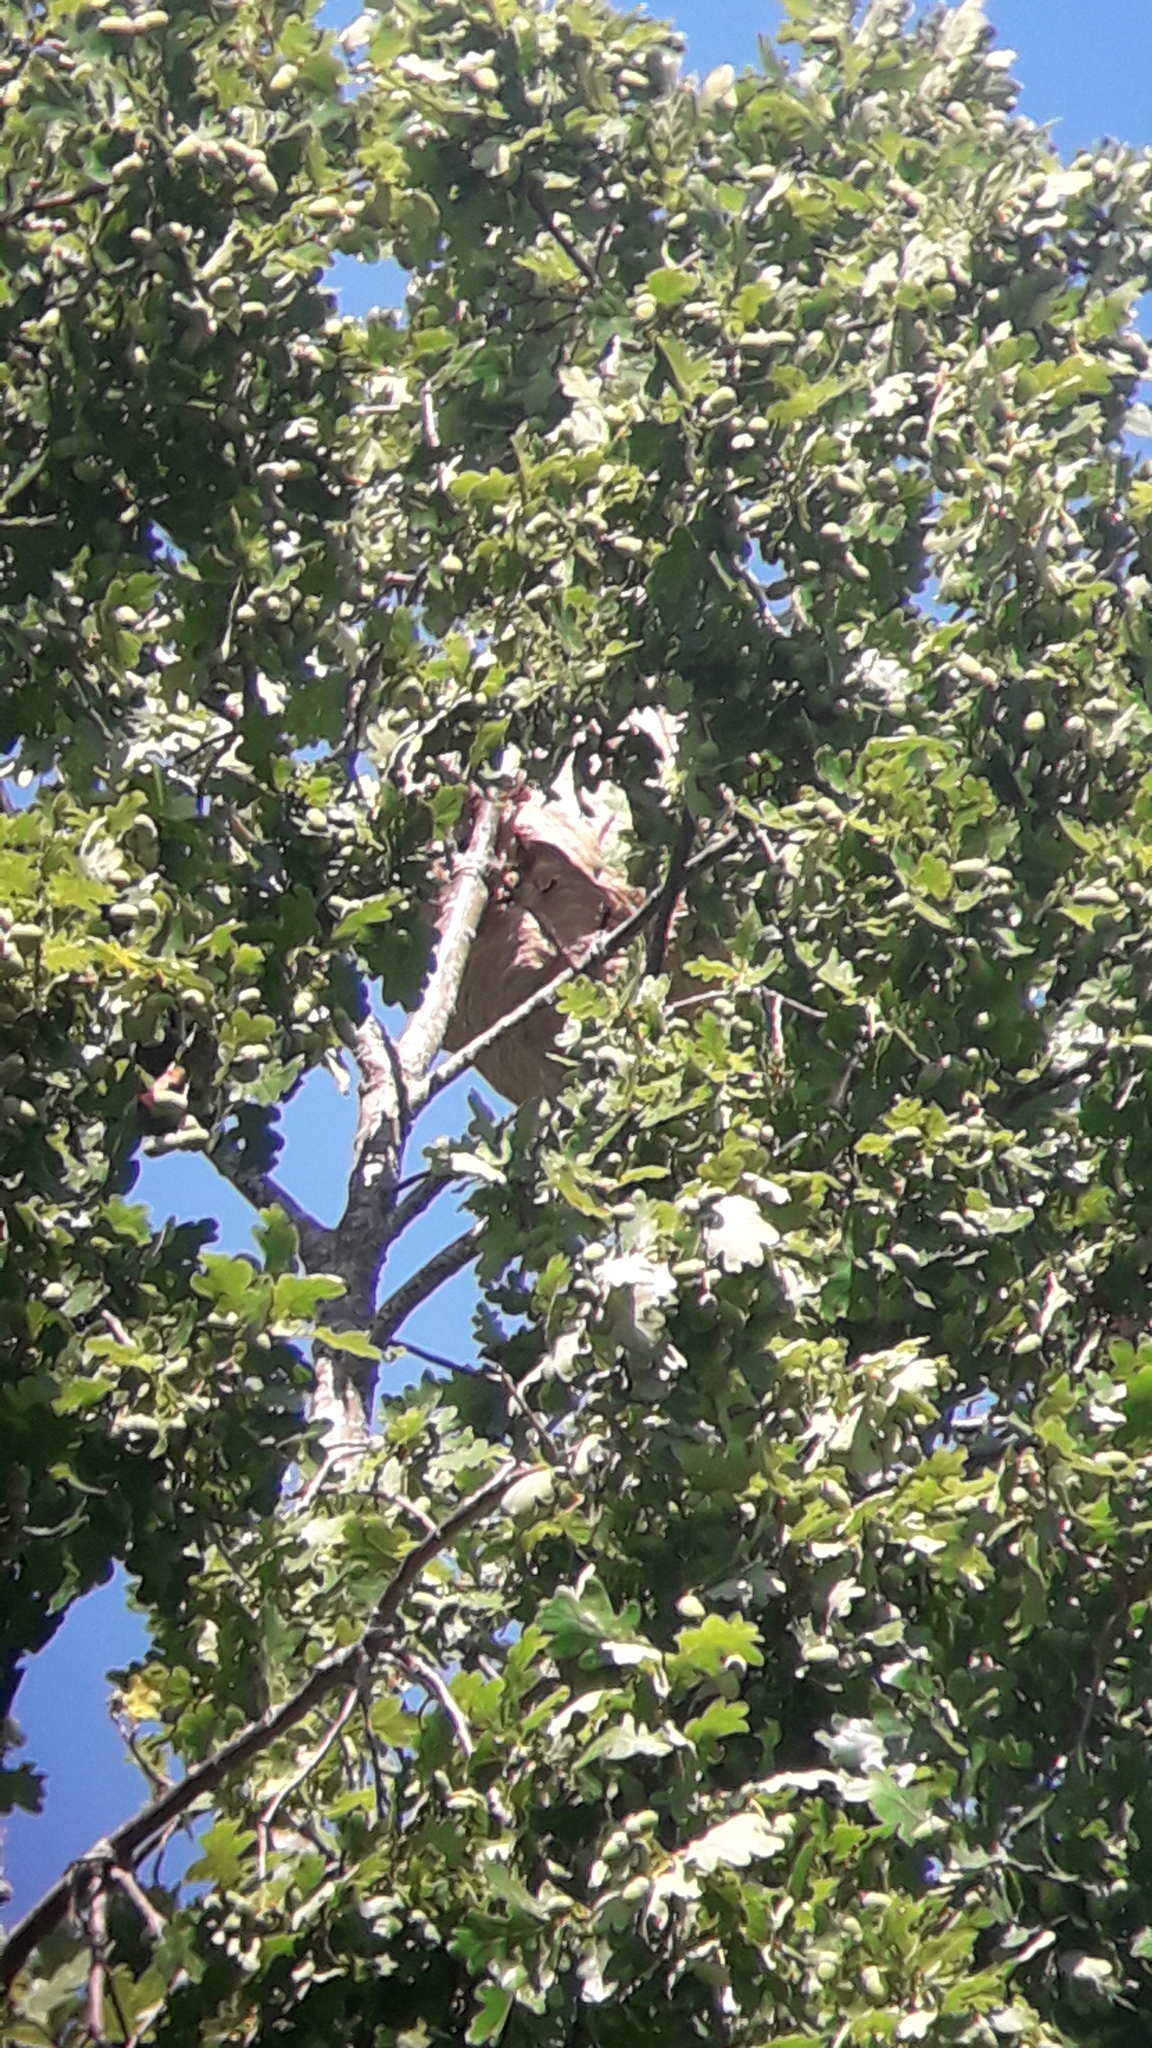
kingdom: Animalia
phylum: Arthropoda
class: Insecta
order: Hymenoptera
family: Vespidae
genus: Vespa
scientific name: Vespa velutina
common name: Asian hornet
